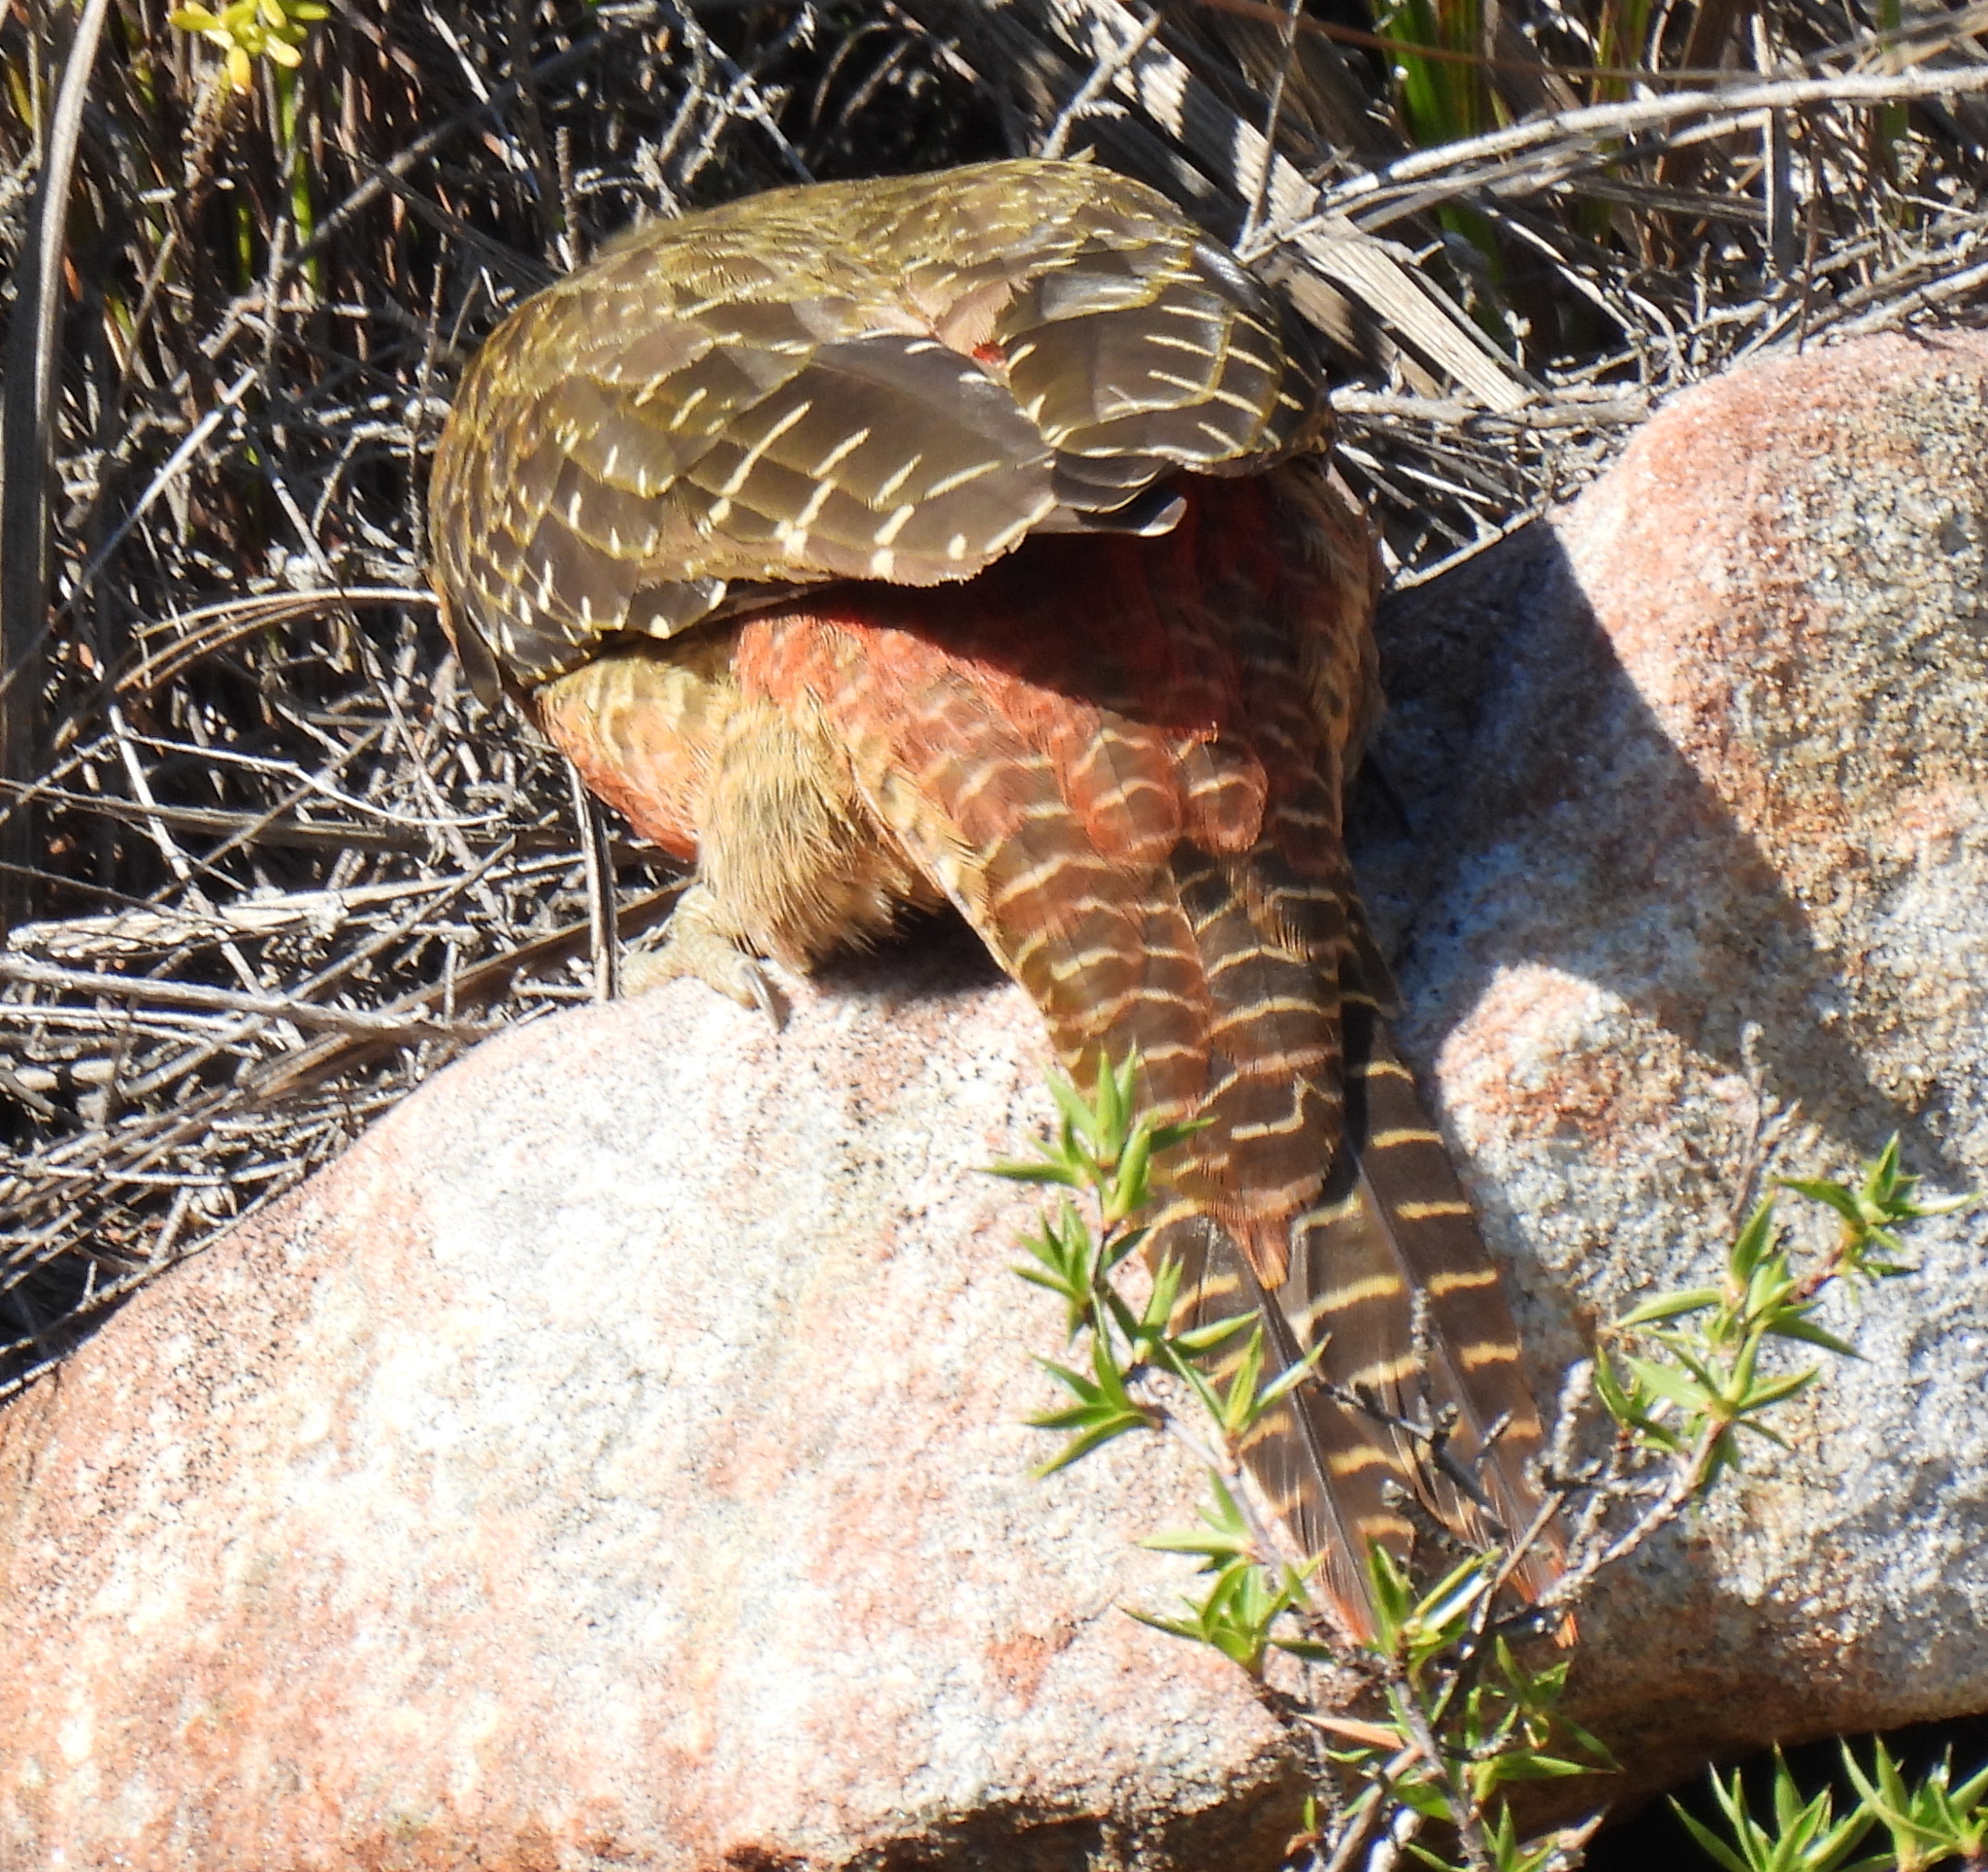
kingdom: Animalia
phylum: Chordata
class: Aves
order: Piciformes
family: Picidae
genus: Geocolaptes
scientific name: Geocolaptes olivaceus
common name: Ground woodpecker
